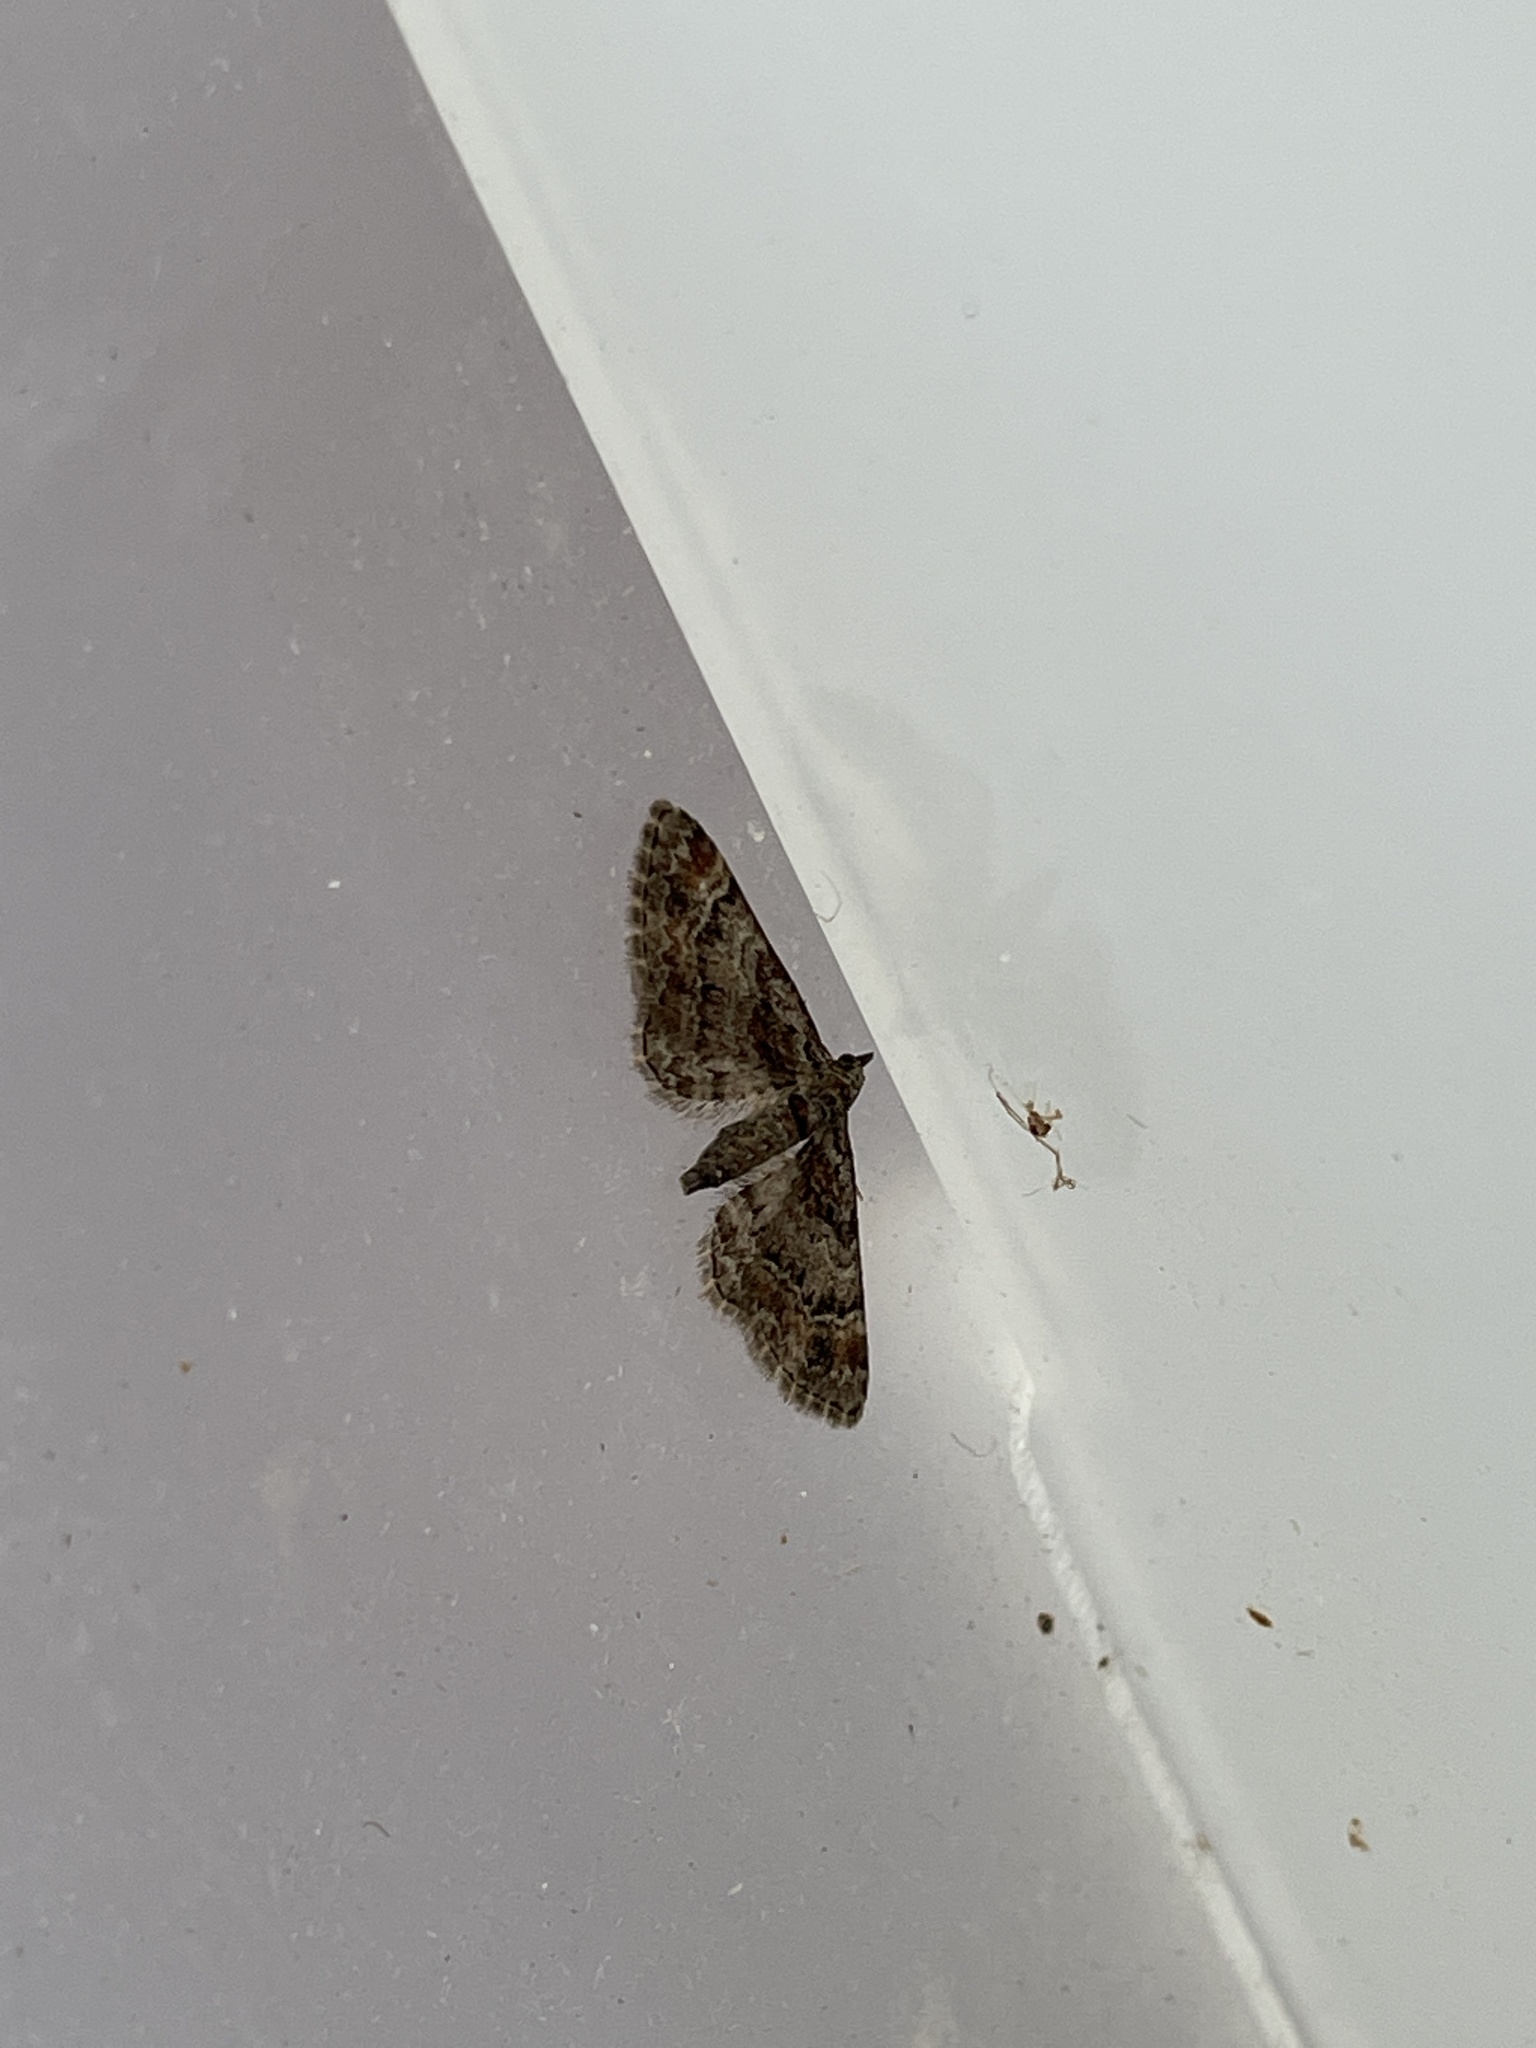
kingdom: Animalia
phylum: Arthropoda
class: Insecta
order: Lepidoptera
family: Geometridae
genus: Gymnoscelis
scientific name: Gymnoscelis rufifasciata
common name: Double-striped pug
